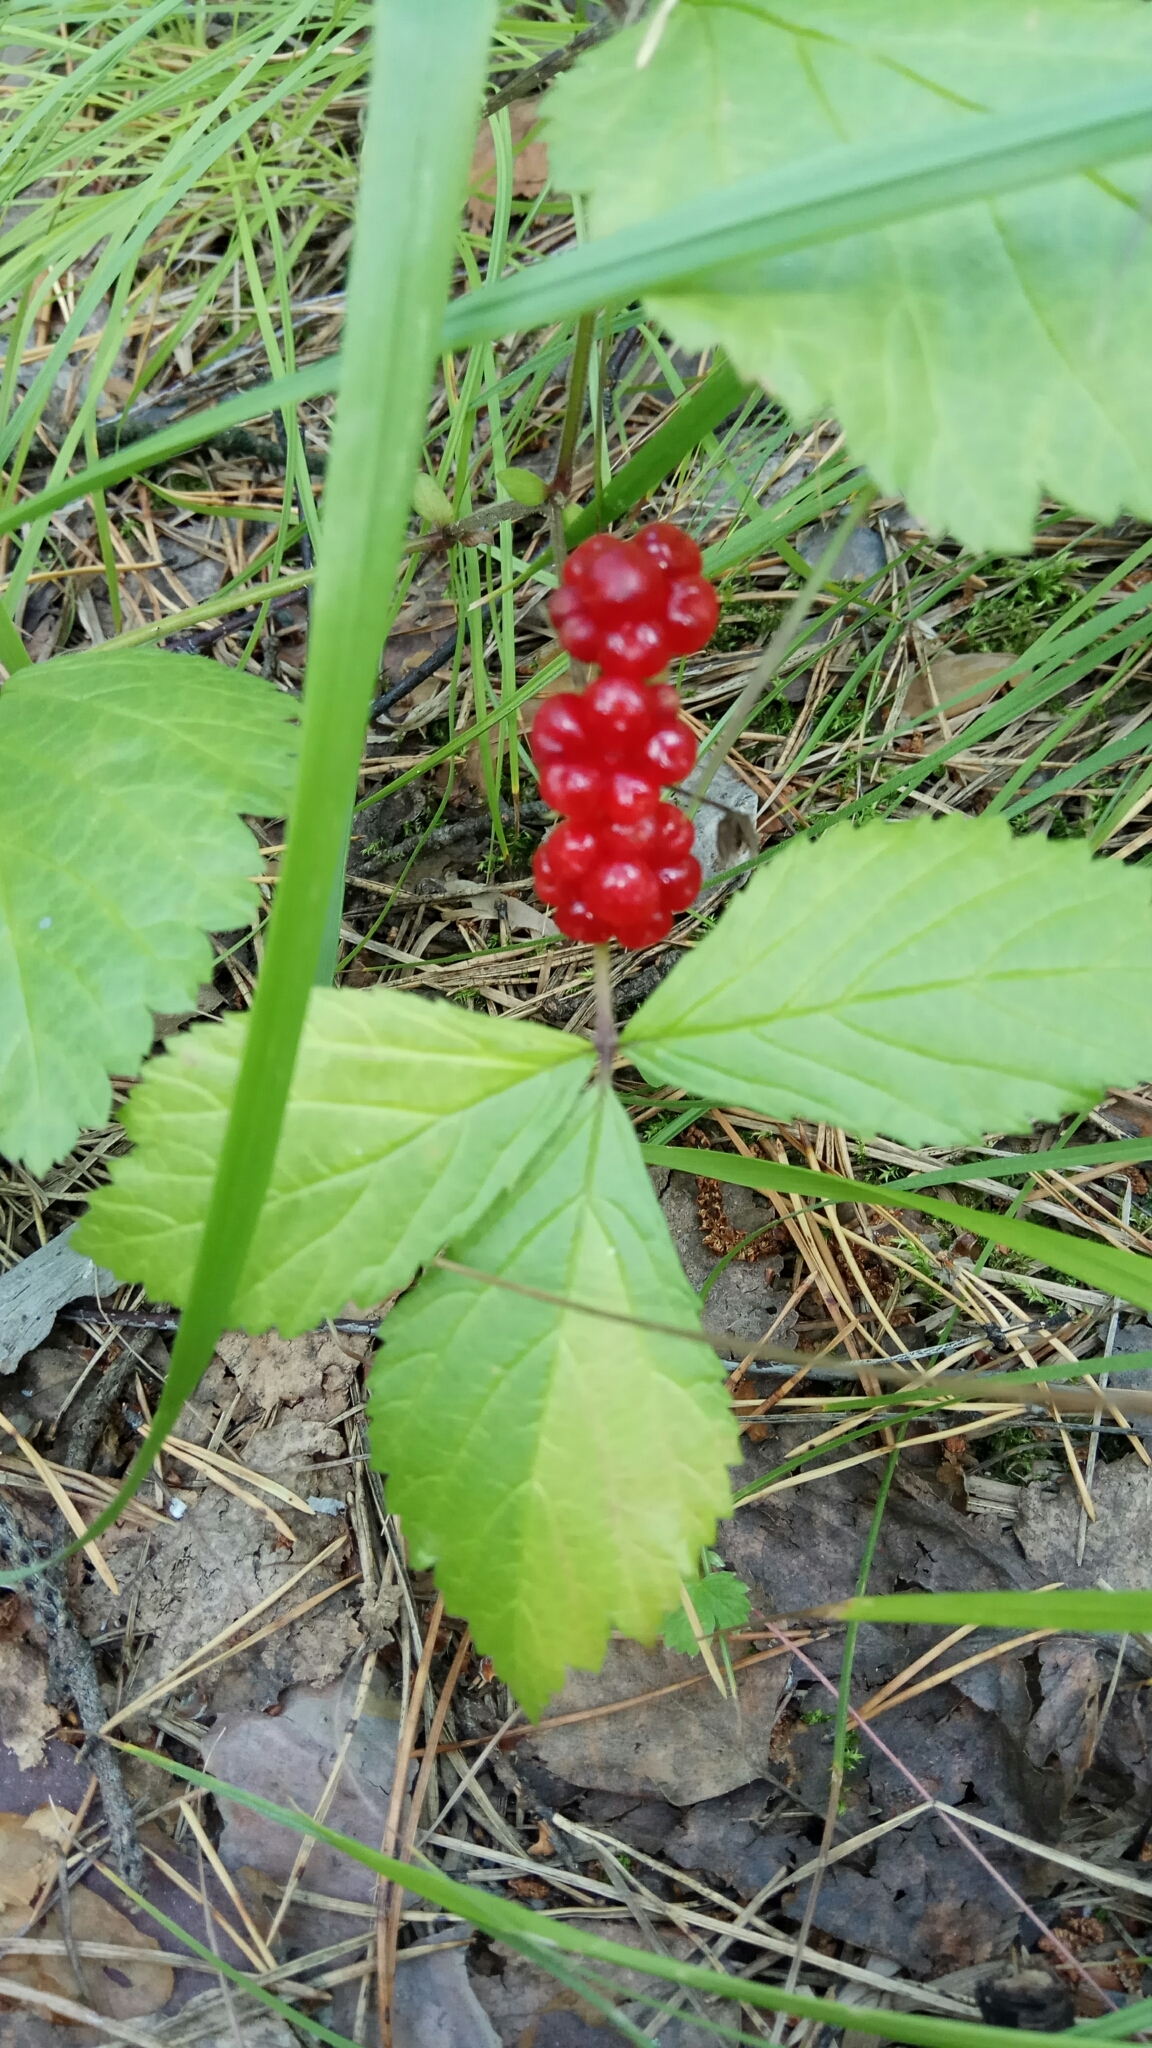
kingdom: Plantae
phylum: Tracheophyta
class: Magnoliopsida
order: Rosales
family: Rosaceae
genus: Rubus
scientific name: Rubus saxatilis
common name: Stone bramble
